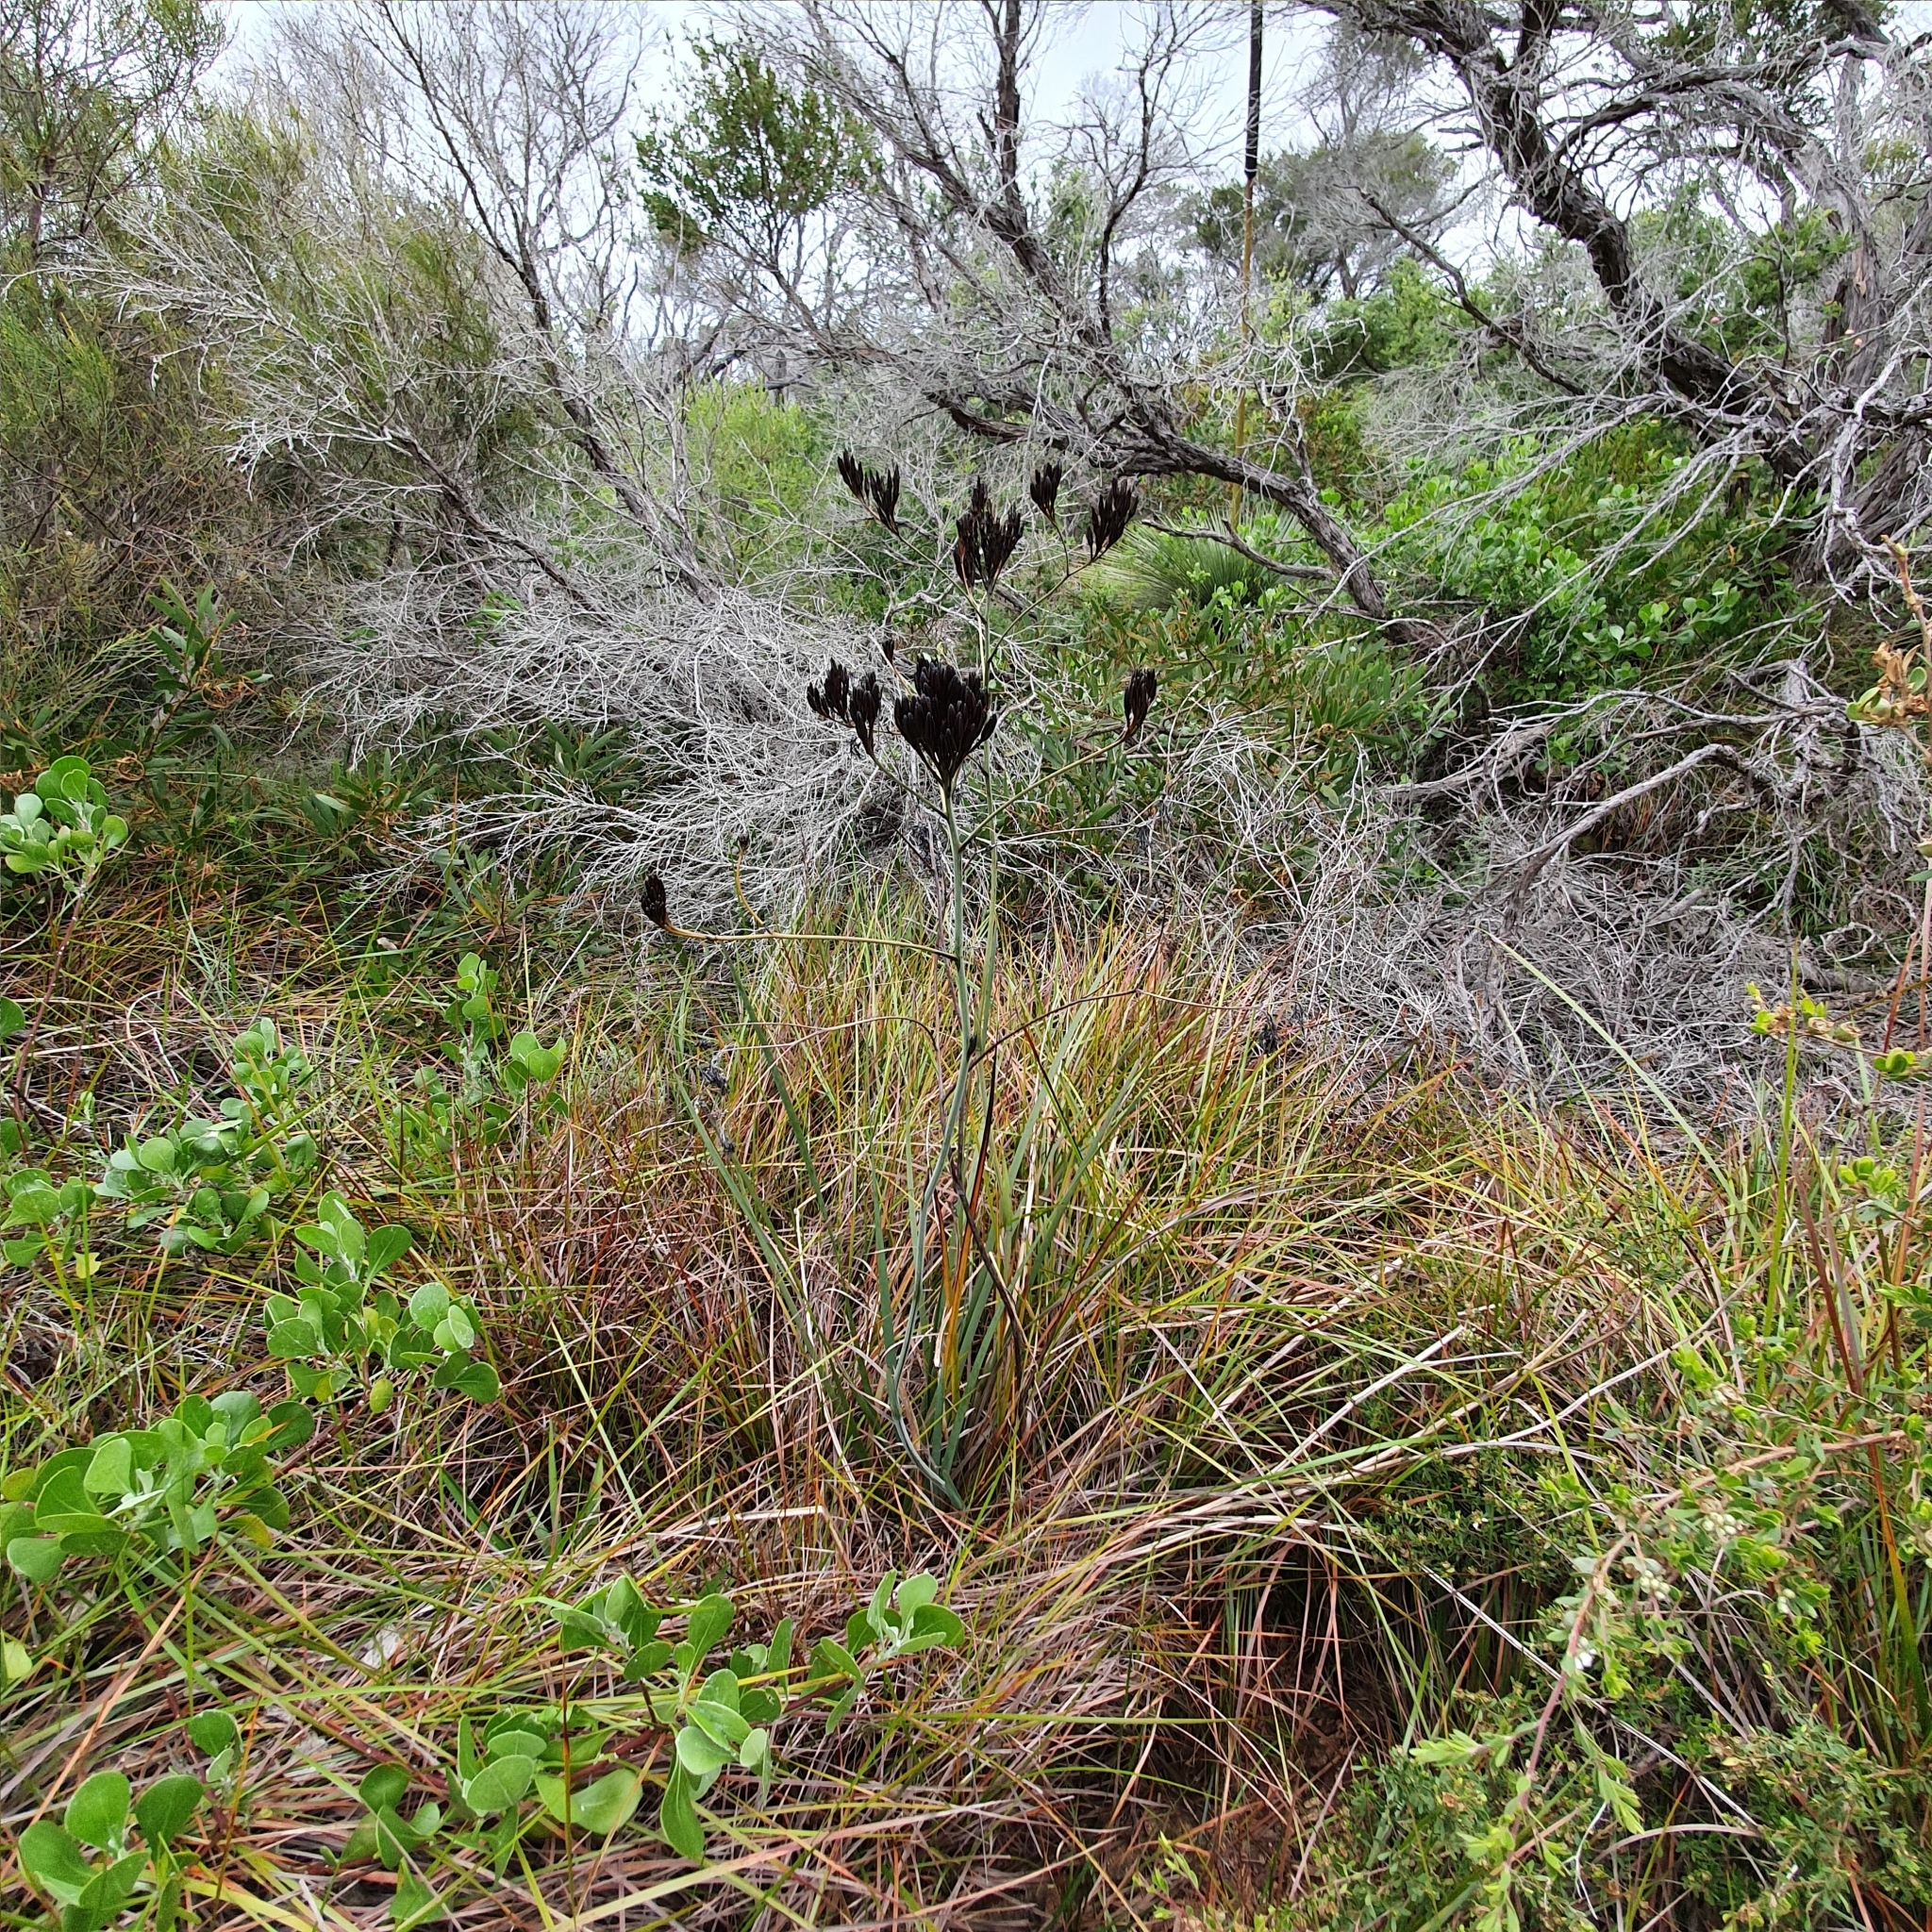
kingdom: Plantae
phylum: Tracheophyta
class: Liliopsida
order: Commelinales
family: Haemodoraceae
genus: Haemodorum
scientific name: Haemodorum planifolium
